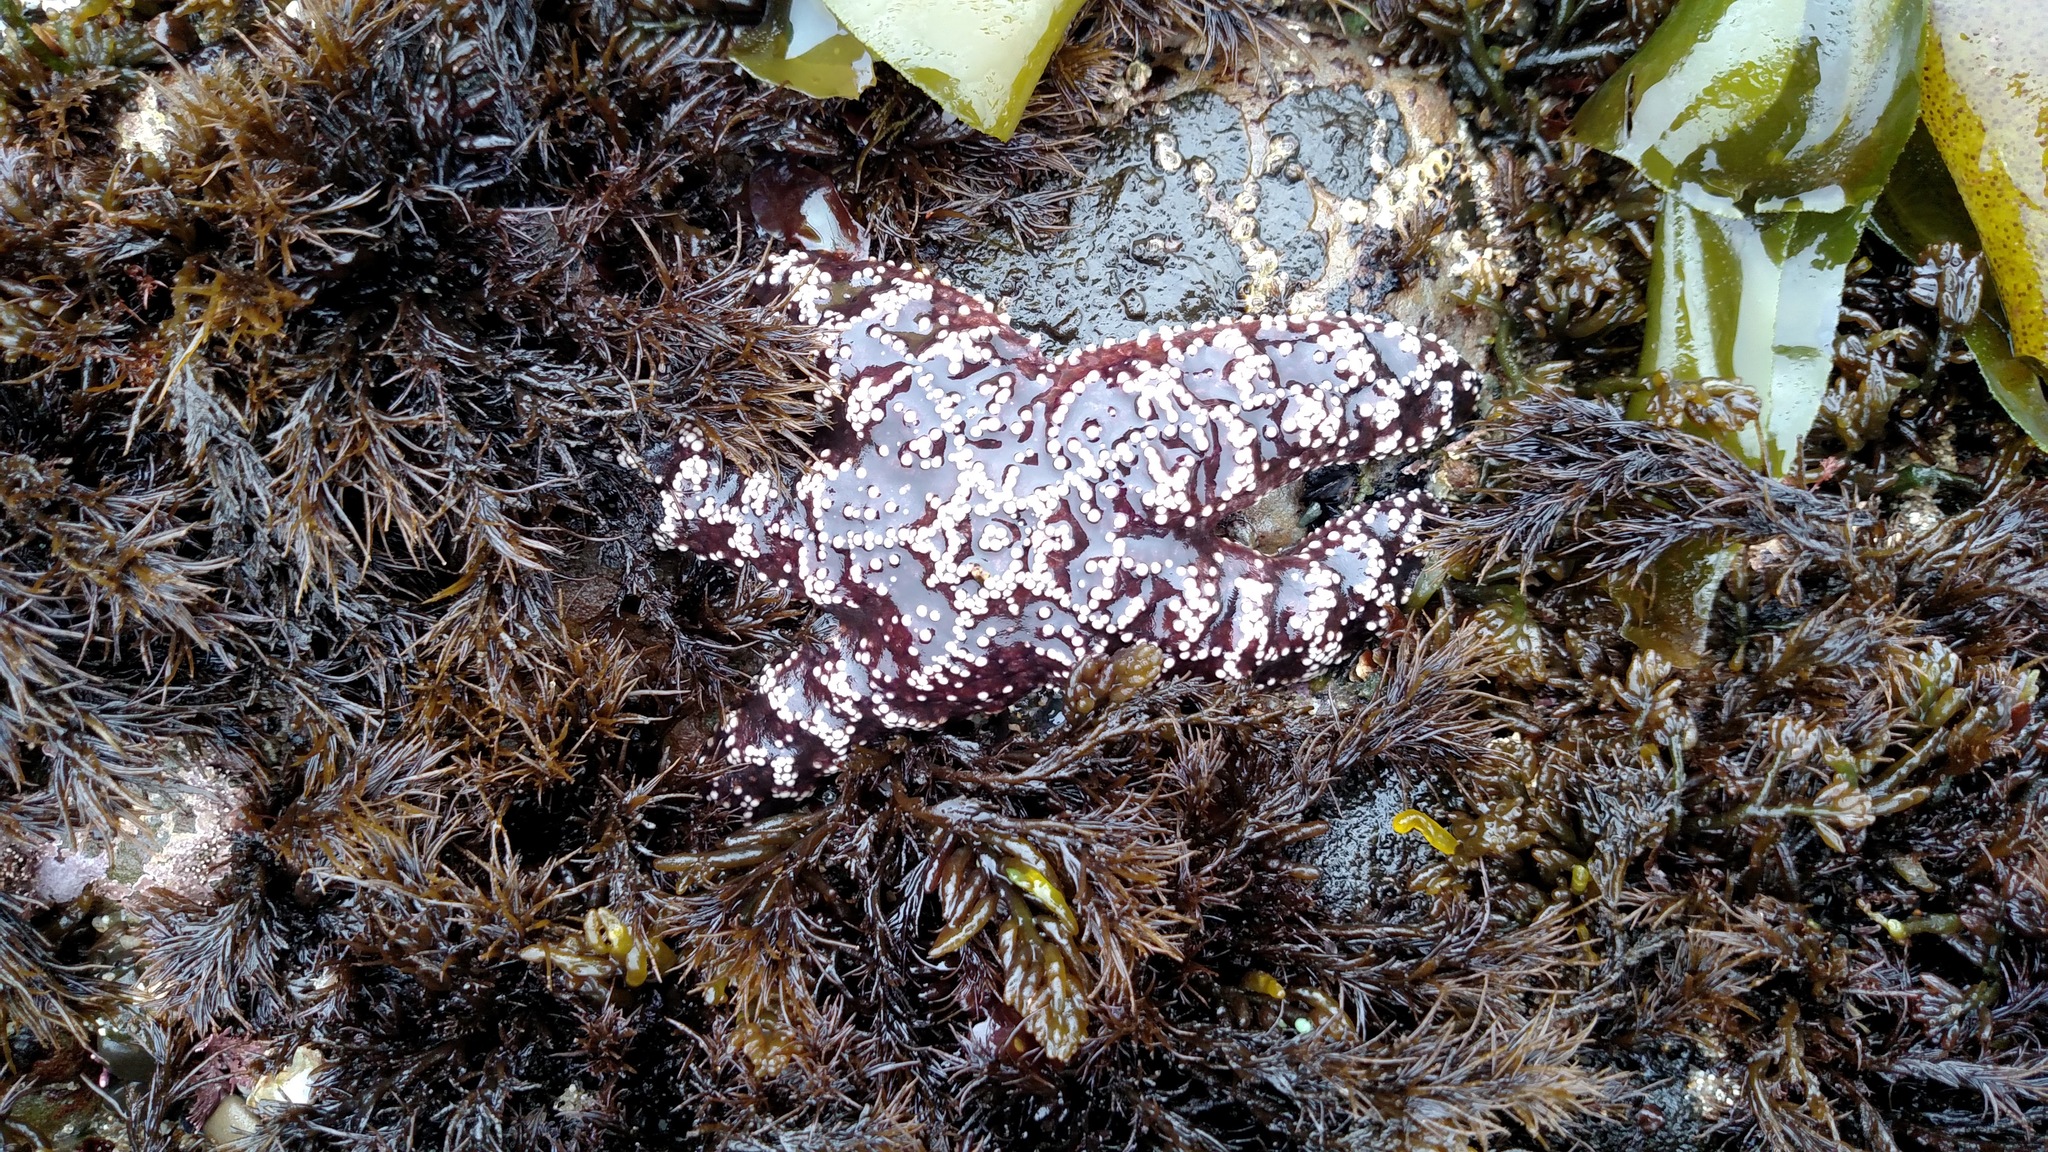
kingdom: Animalia
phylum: Echinodermata
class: Asteroidea
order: Forcipulatida
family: Asteriidae
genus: Pisaster
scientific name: Pisaster ochraceus
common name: Ochre stars
